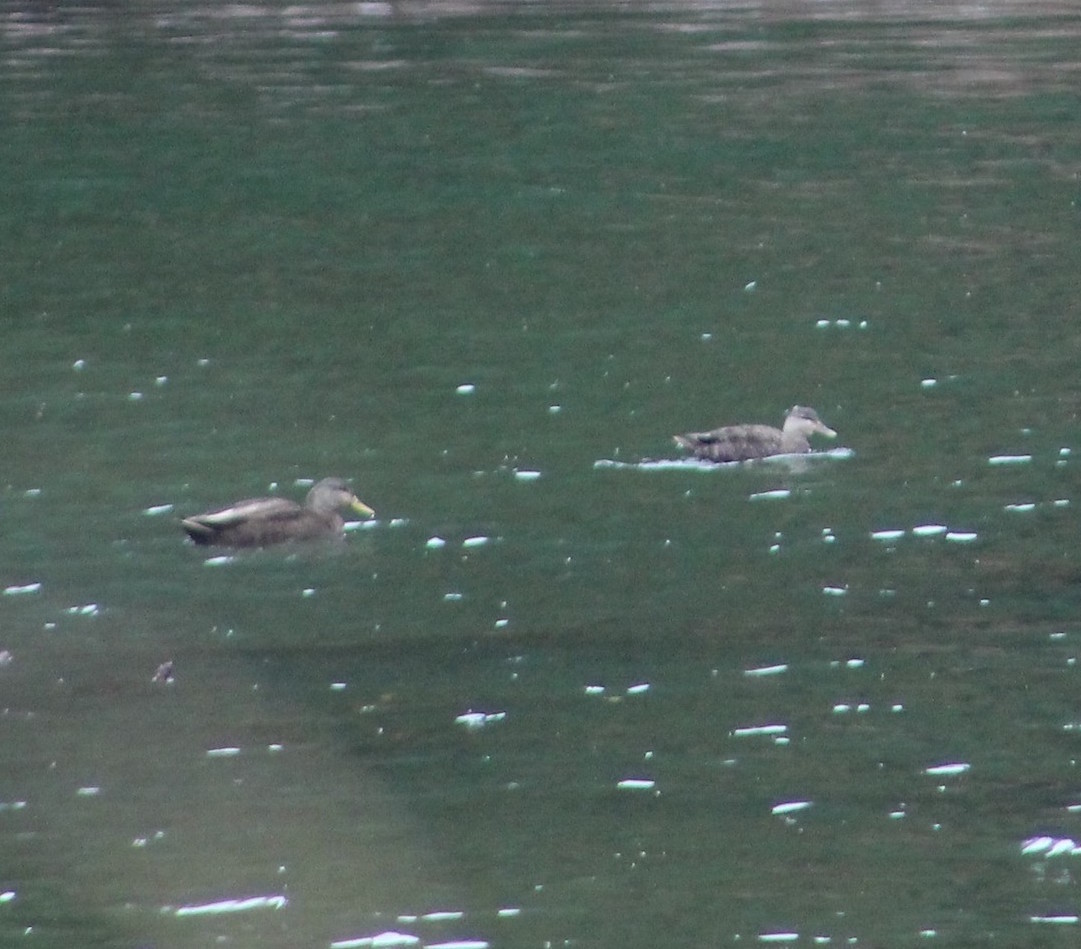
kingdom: Animalia
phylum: Chordata
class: Aves
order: Anseriformes
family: Anatidae
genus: Anas
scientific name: Anas rubripes
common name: American black duck
